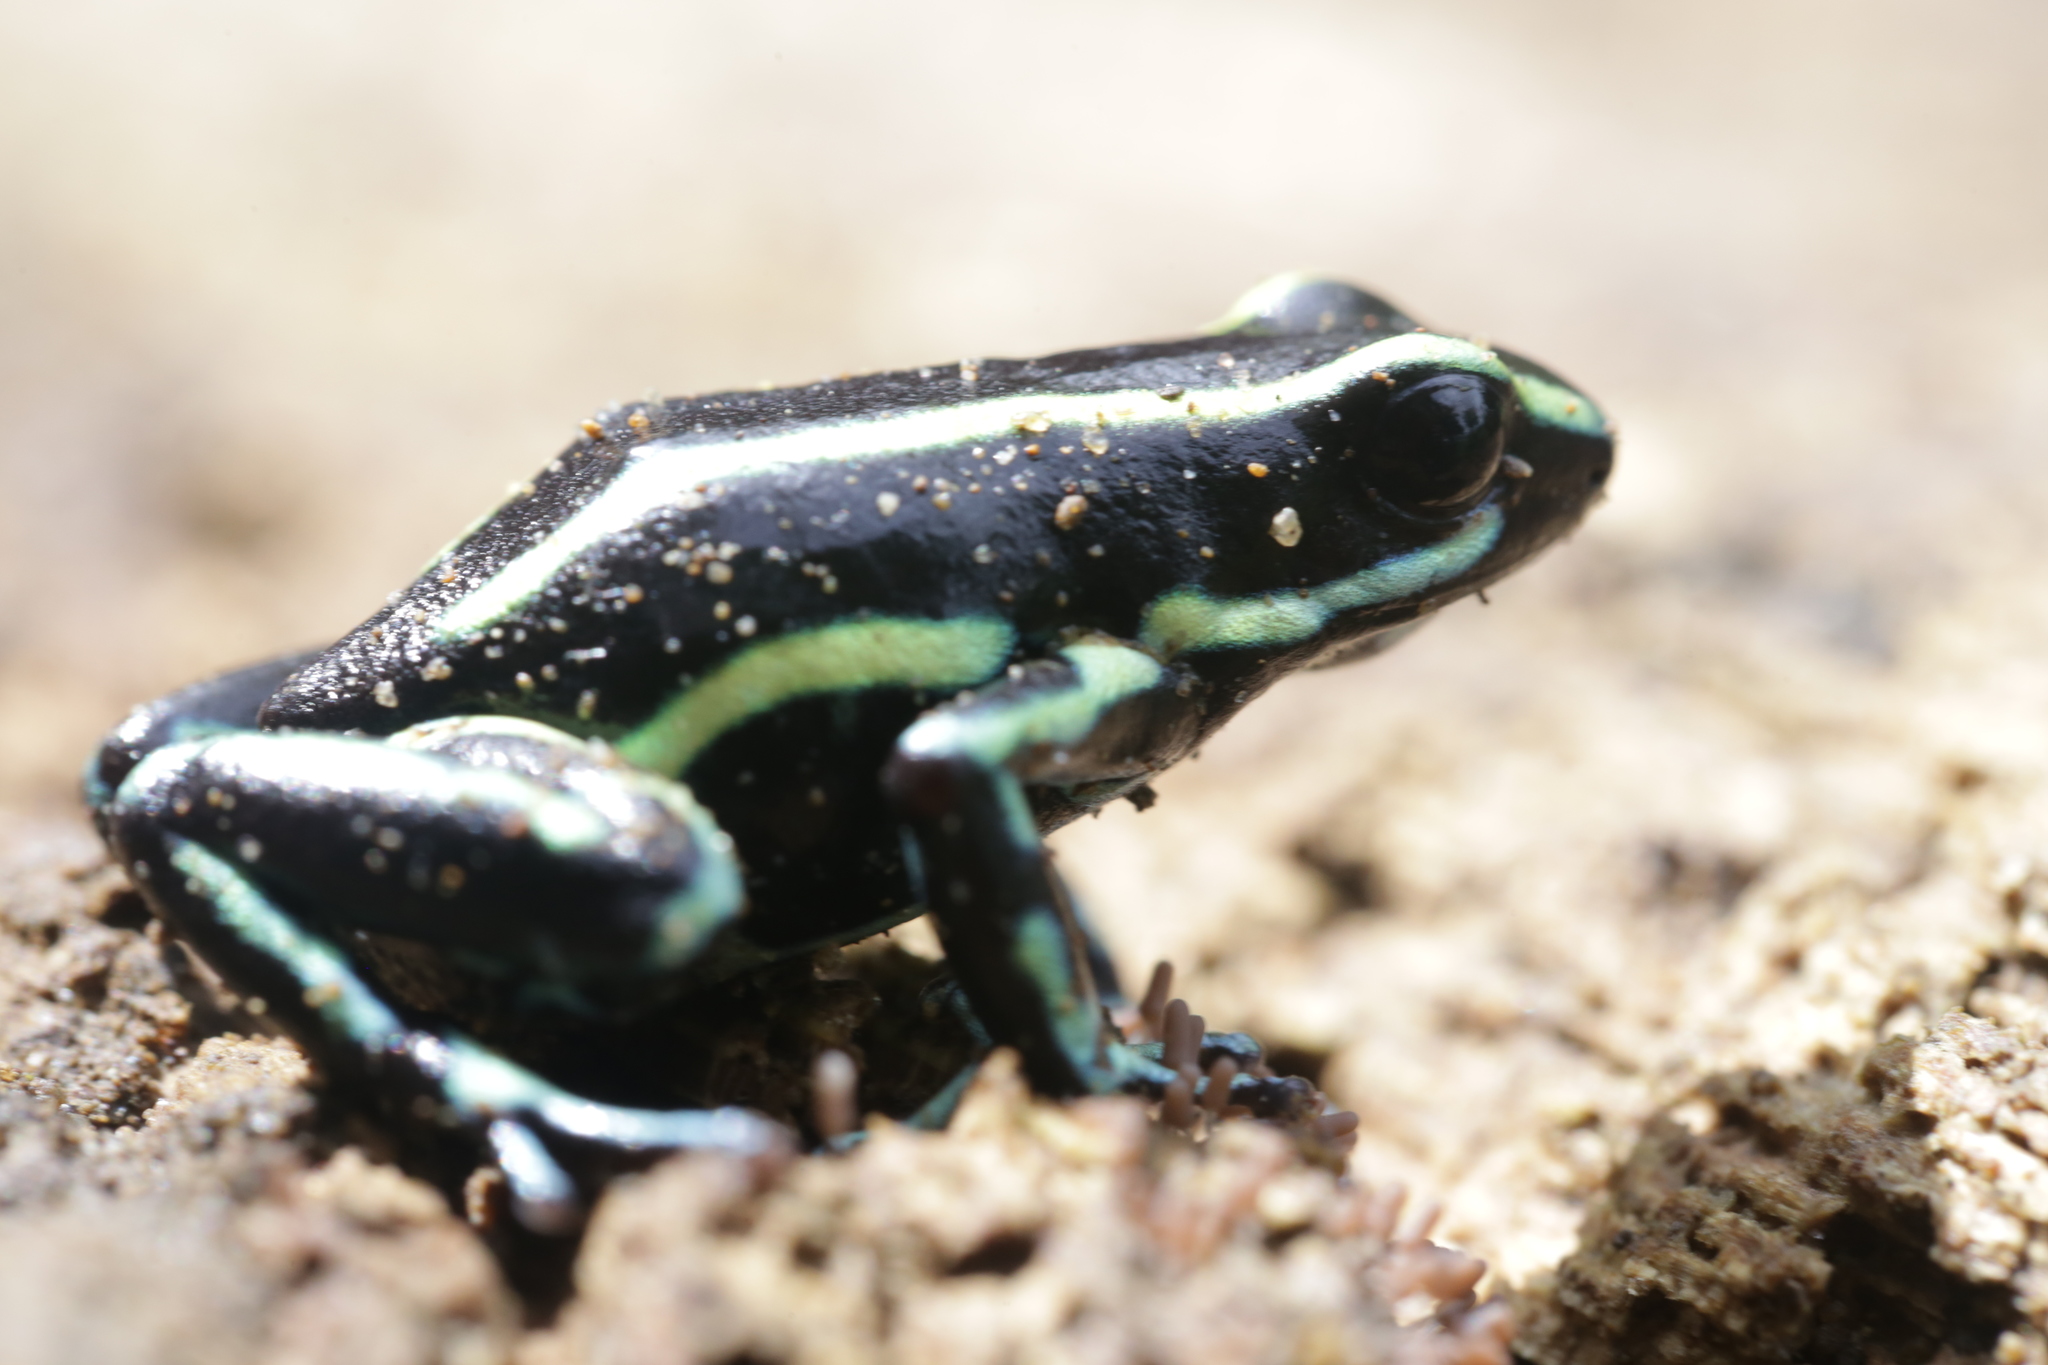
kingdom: Animalia
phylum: Chordata
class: Amphibia
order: Anura
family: Dendrobatidae
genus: Dendrobates
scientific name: Dendrobates truncatus
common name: Yellow-striped poison frog
